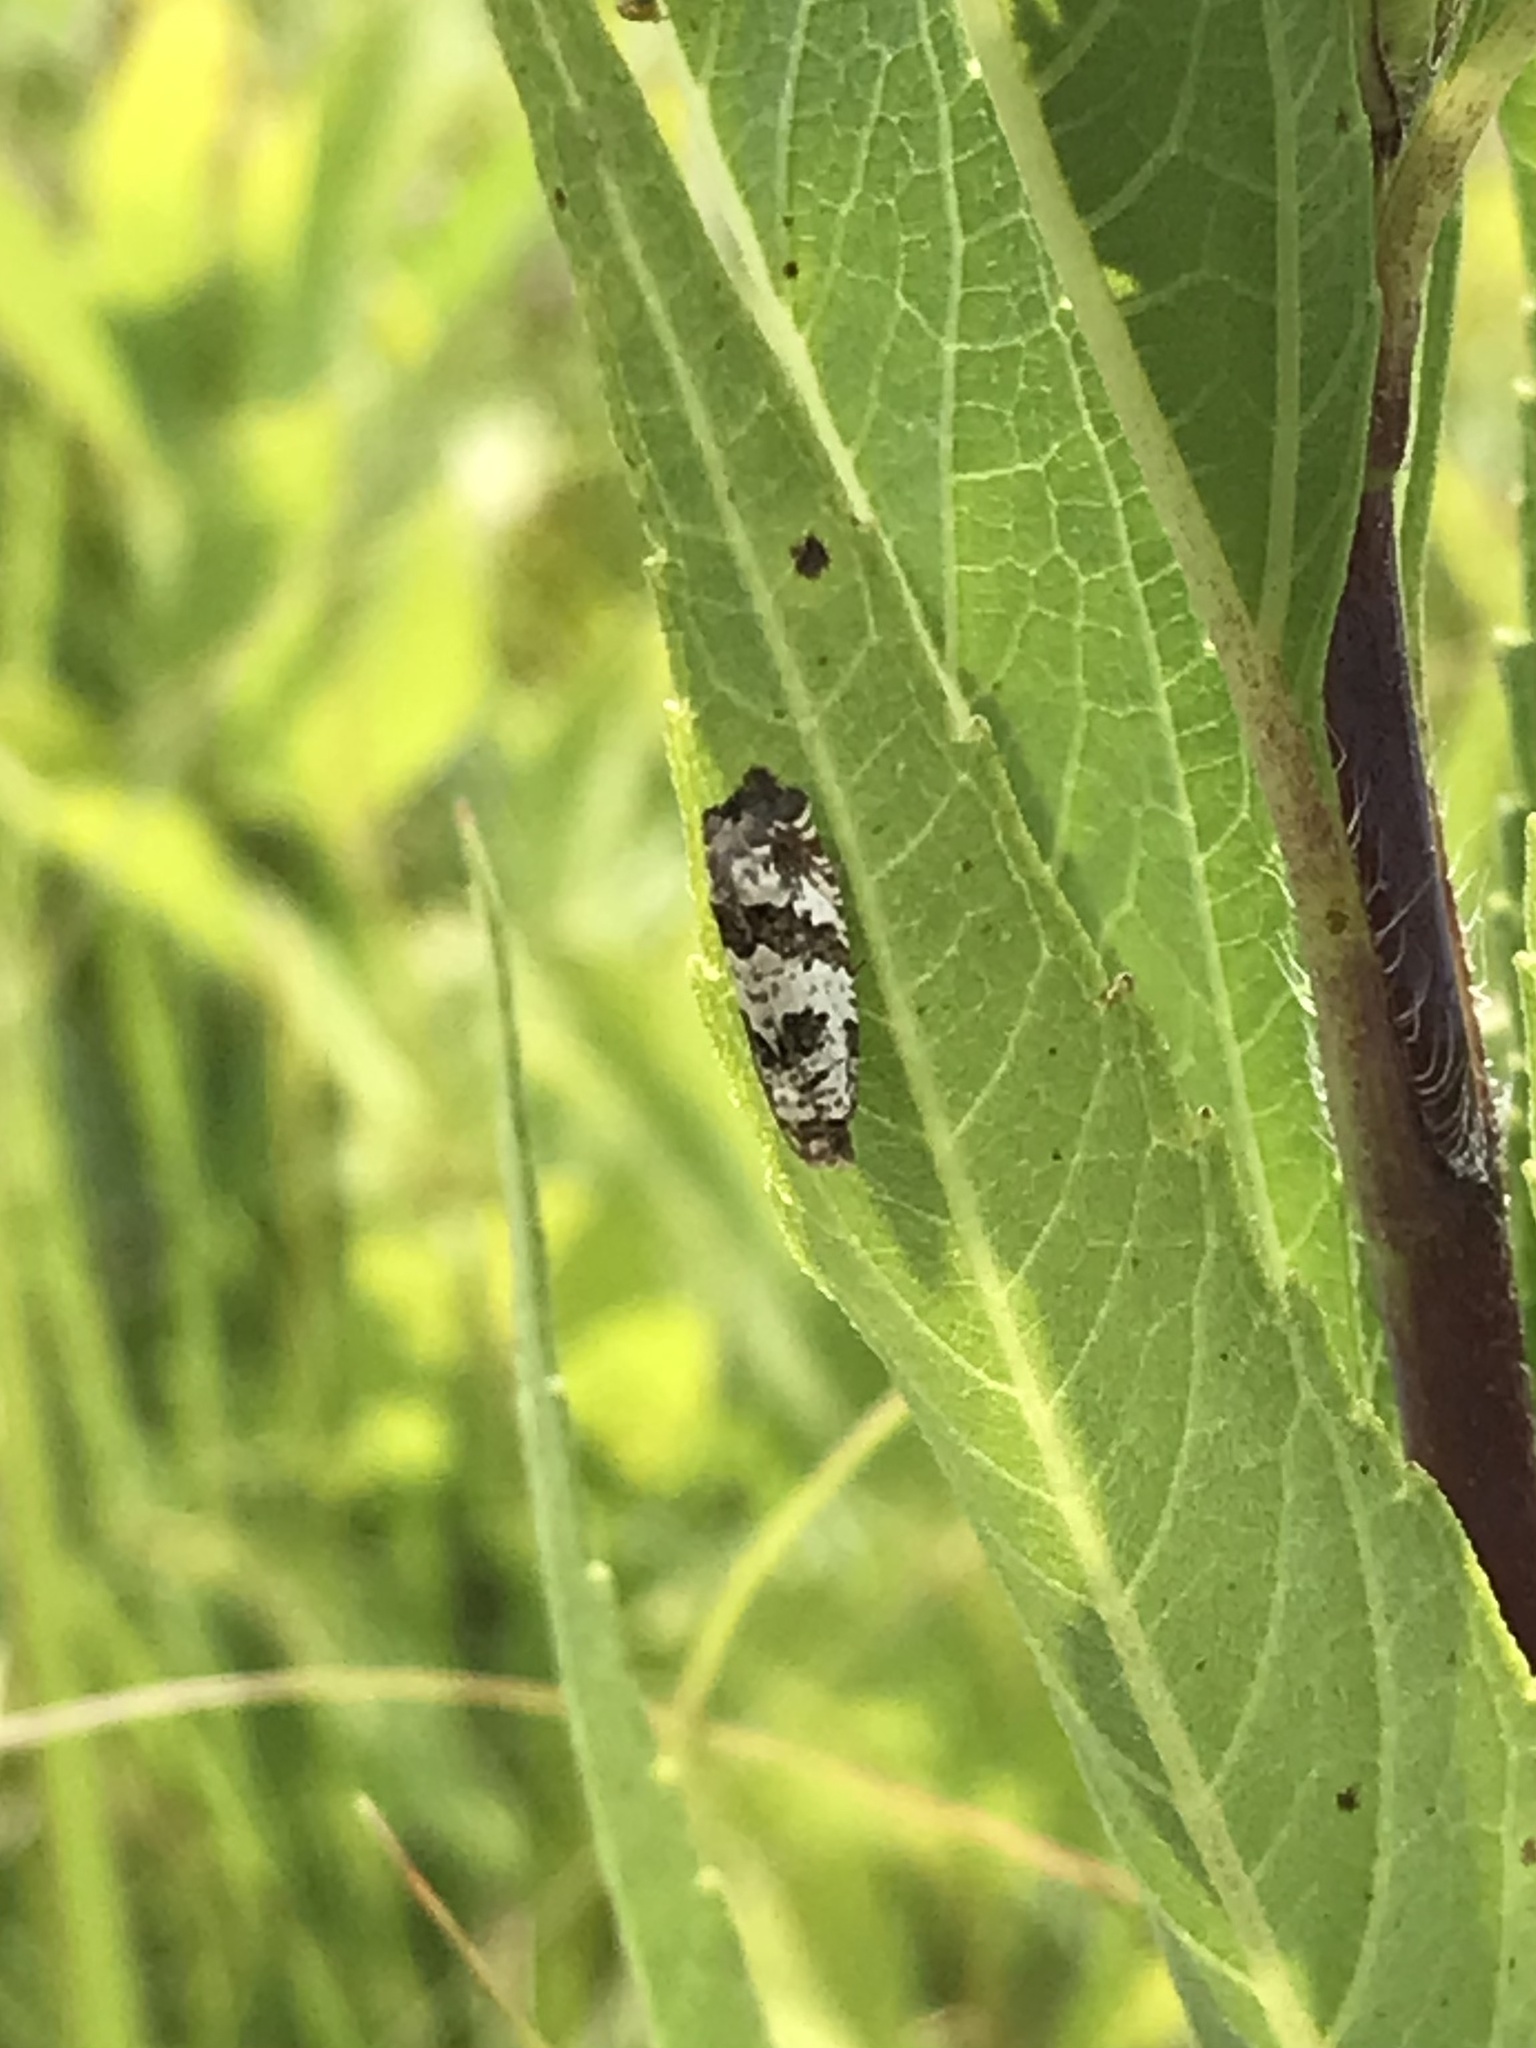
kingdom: Animalia
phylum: Arthropoda
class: Insecta
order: Lepidoptera
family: Tortricidae
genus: Pelochrista
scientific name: Pelochrista matutina
